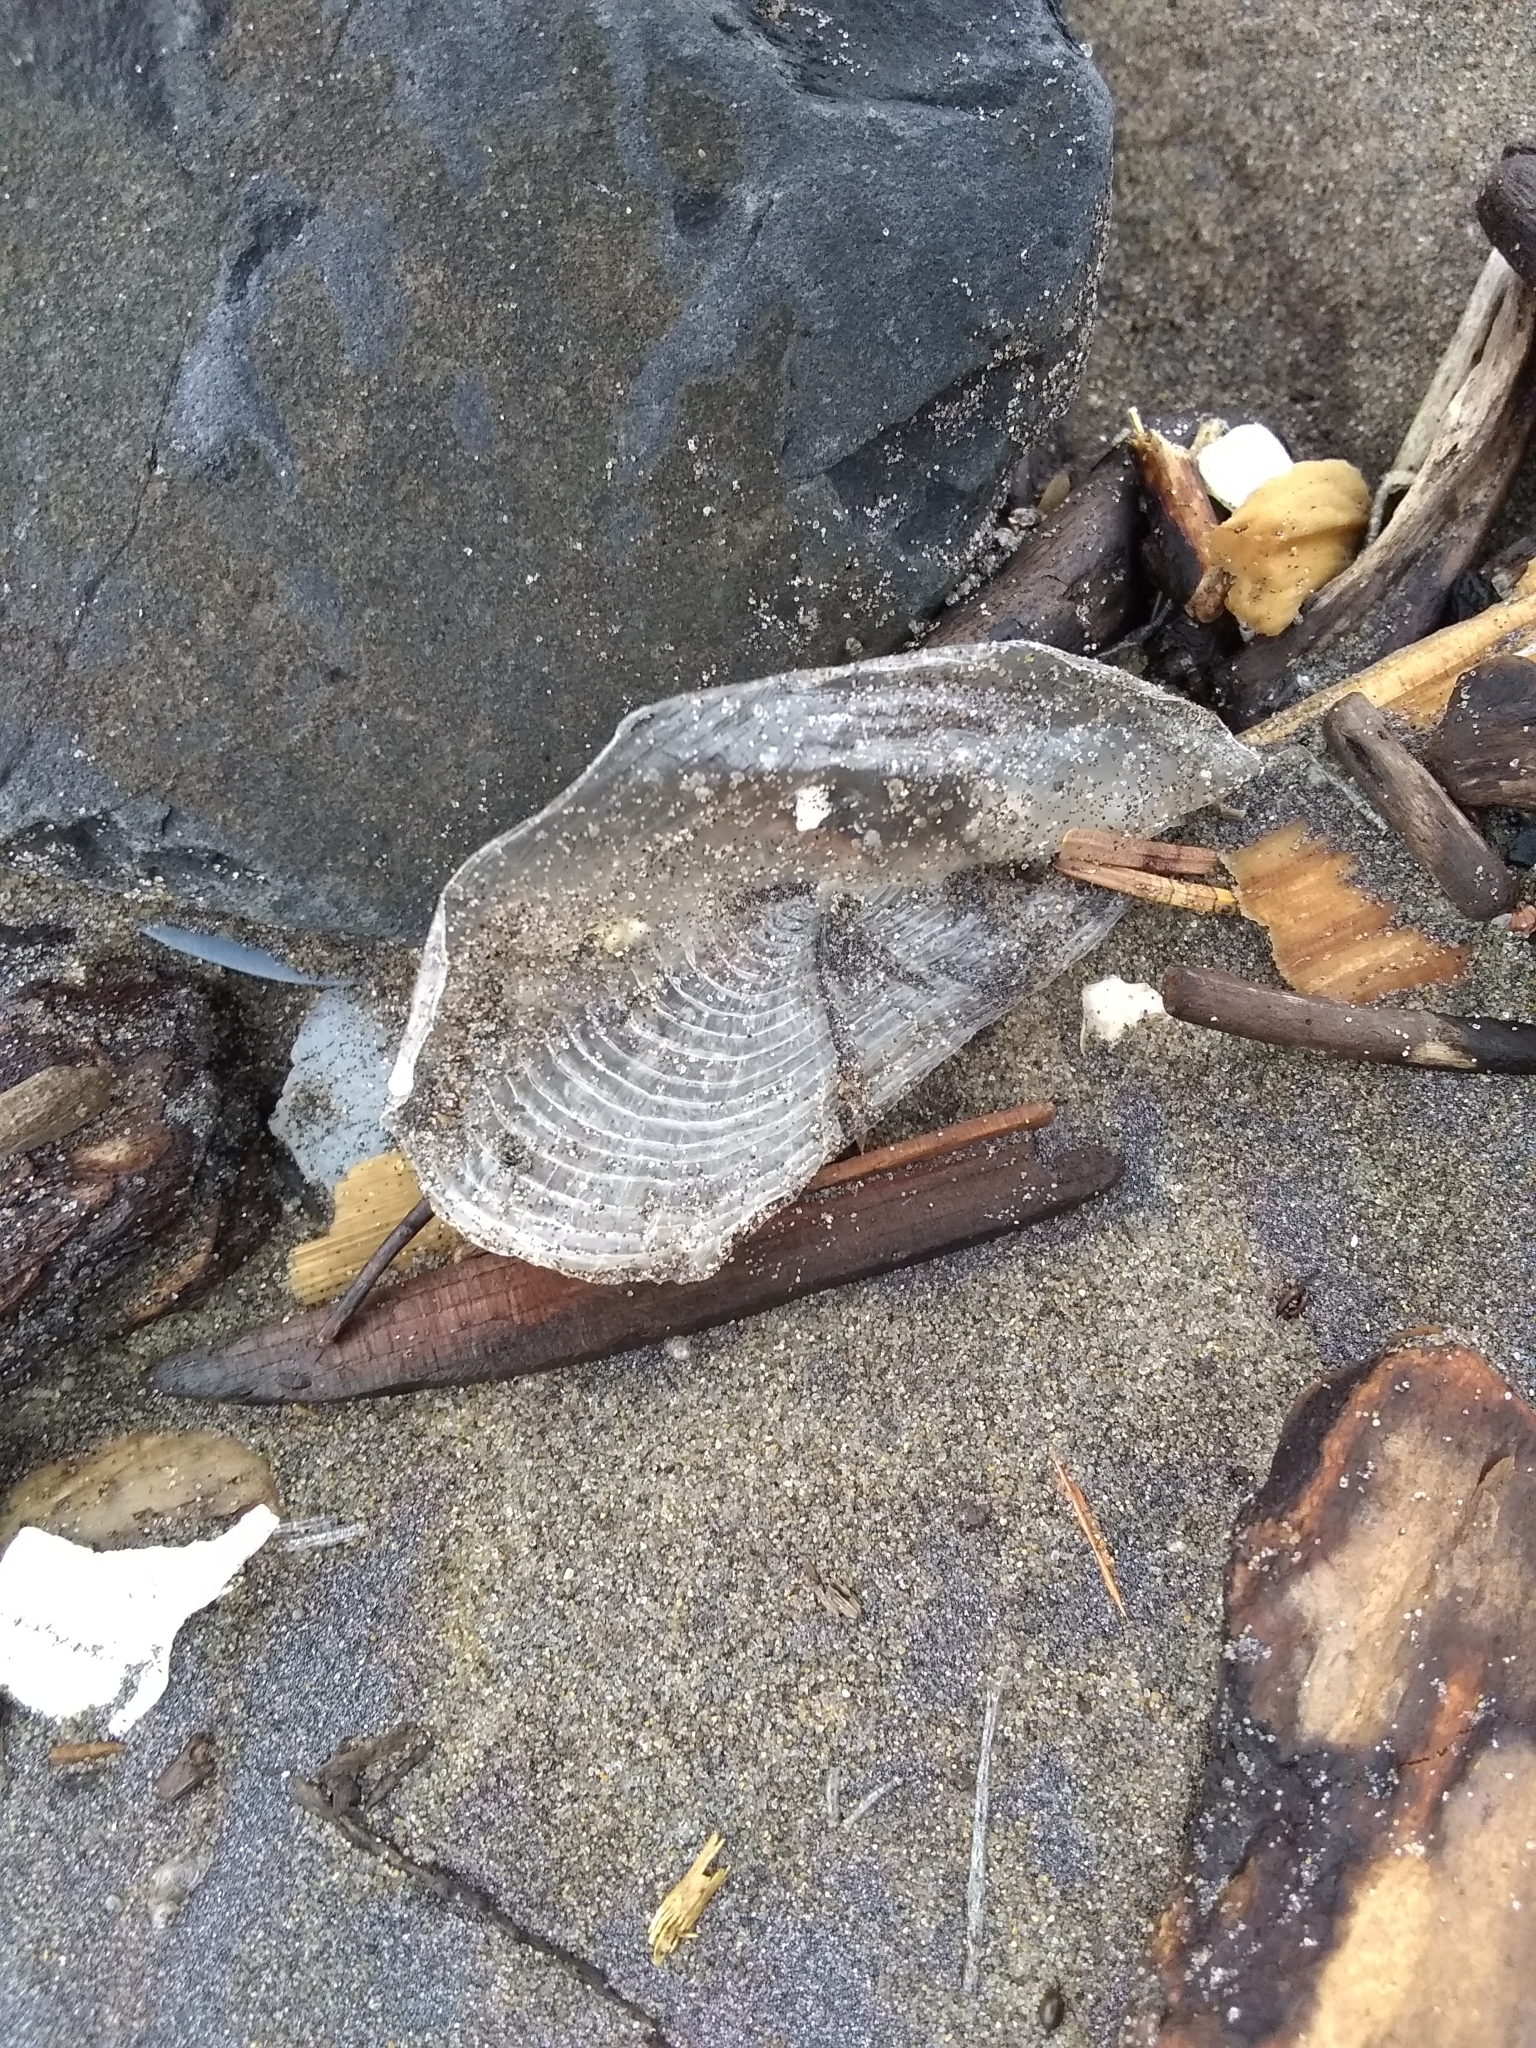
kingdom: Animalia
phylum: Cnidaria
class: Hydrozoa
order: Anthoathecata
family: Porpitidae
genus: Velella
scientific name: Velella velella
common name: By-the-wind-sailor
